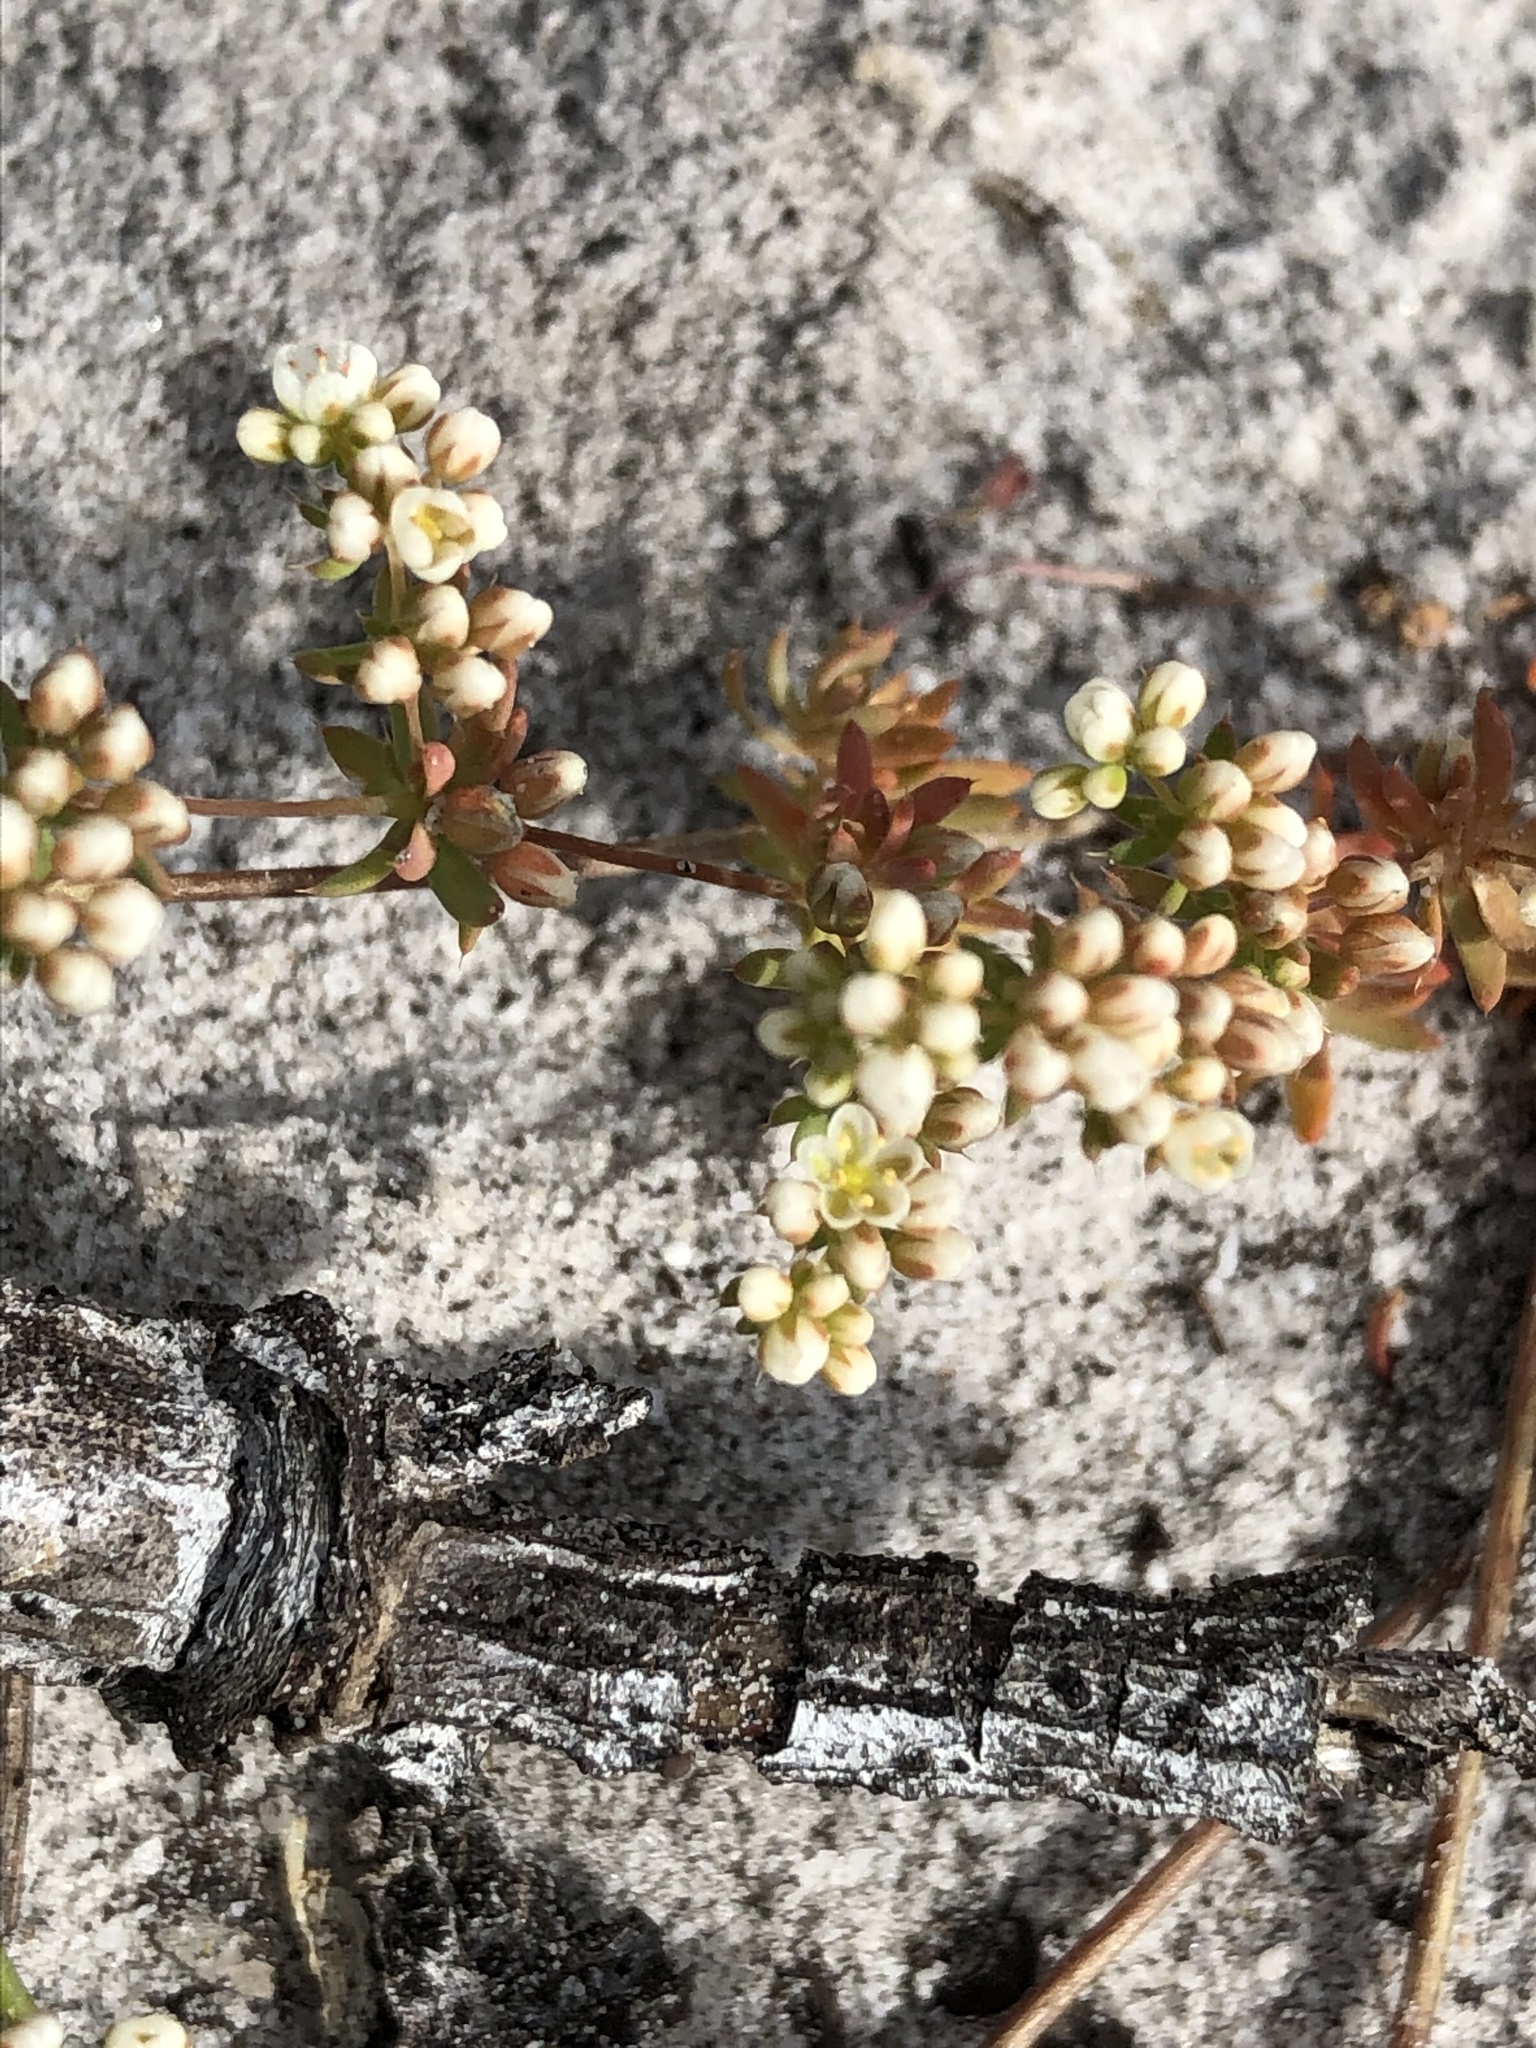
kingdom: Plantae
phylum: Tracheophyta
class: Magnoliopsida
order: Caryophyllales
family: Molluginaceae
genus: Adenogramma
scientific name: Adenogramma glomerata
